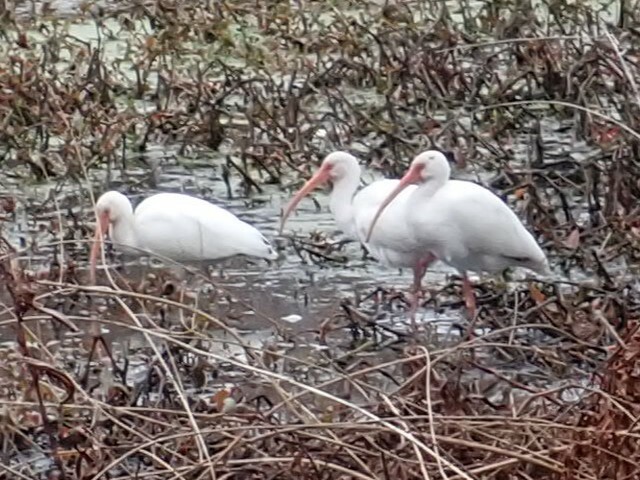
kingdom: Animalia
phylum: Chordata
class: Aves
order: Pelecaniformes
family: Threskiornithidae
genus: Eudocimus
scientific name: Eudocimus albus
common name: White ibis
